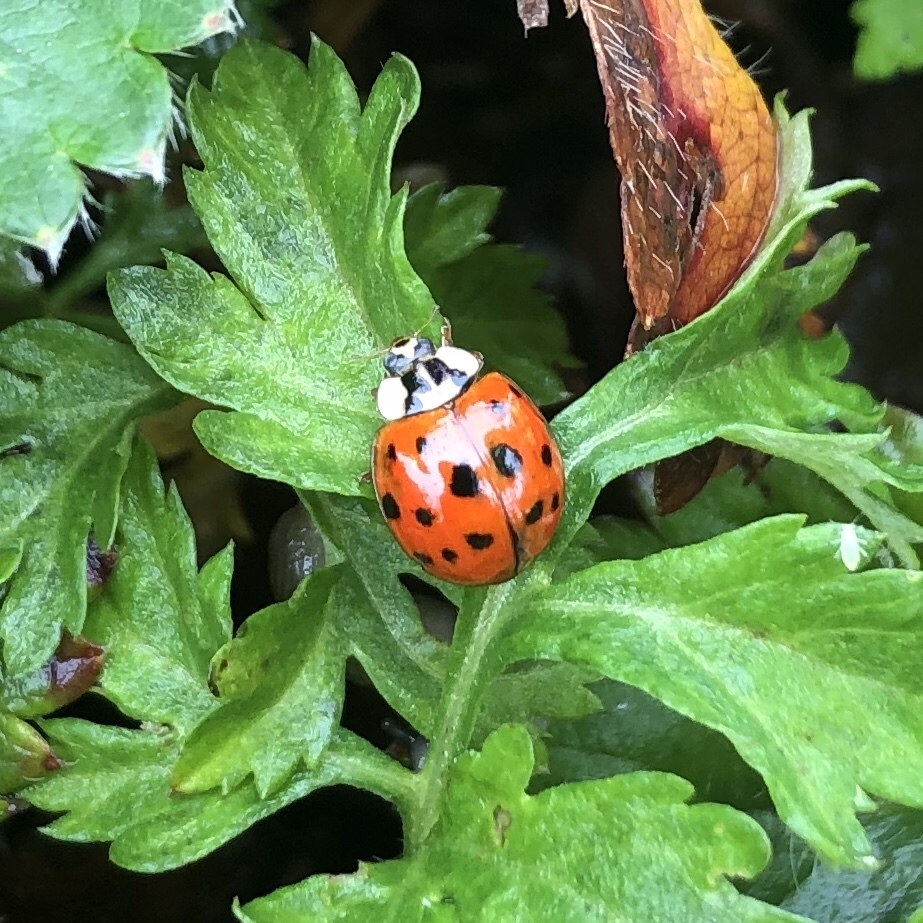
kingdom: Animalia
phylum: Arthropoda
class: Insecta
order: Coleoptera
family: Coccinellidae
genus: Harmonia
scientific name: Harmonia axyridis
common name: Harlequin ladybird
